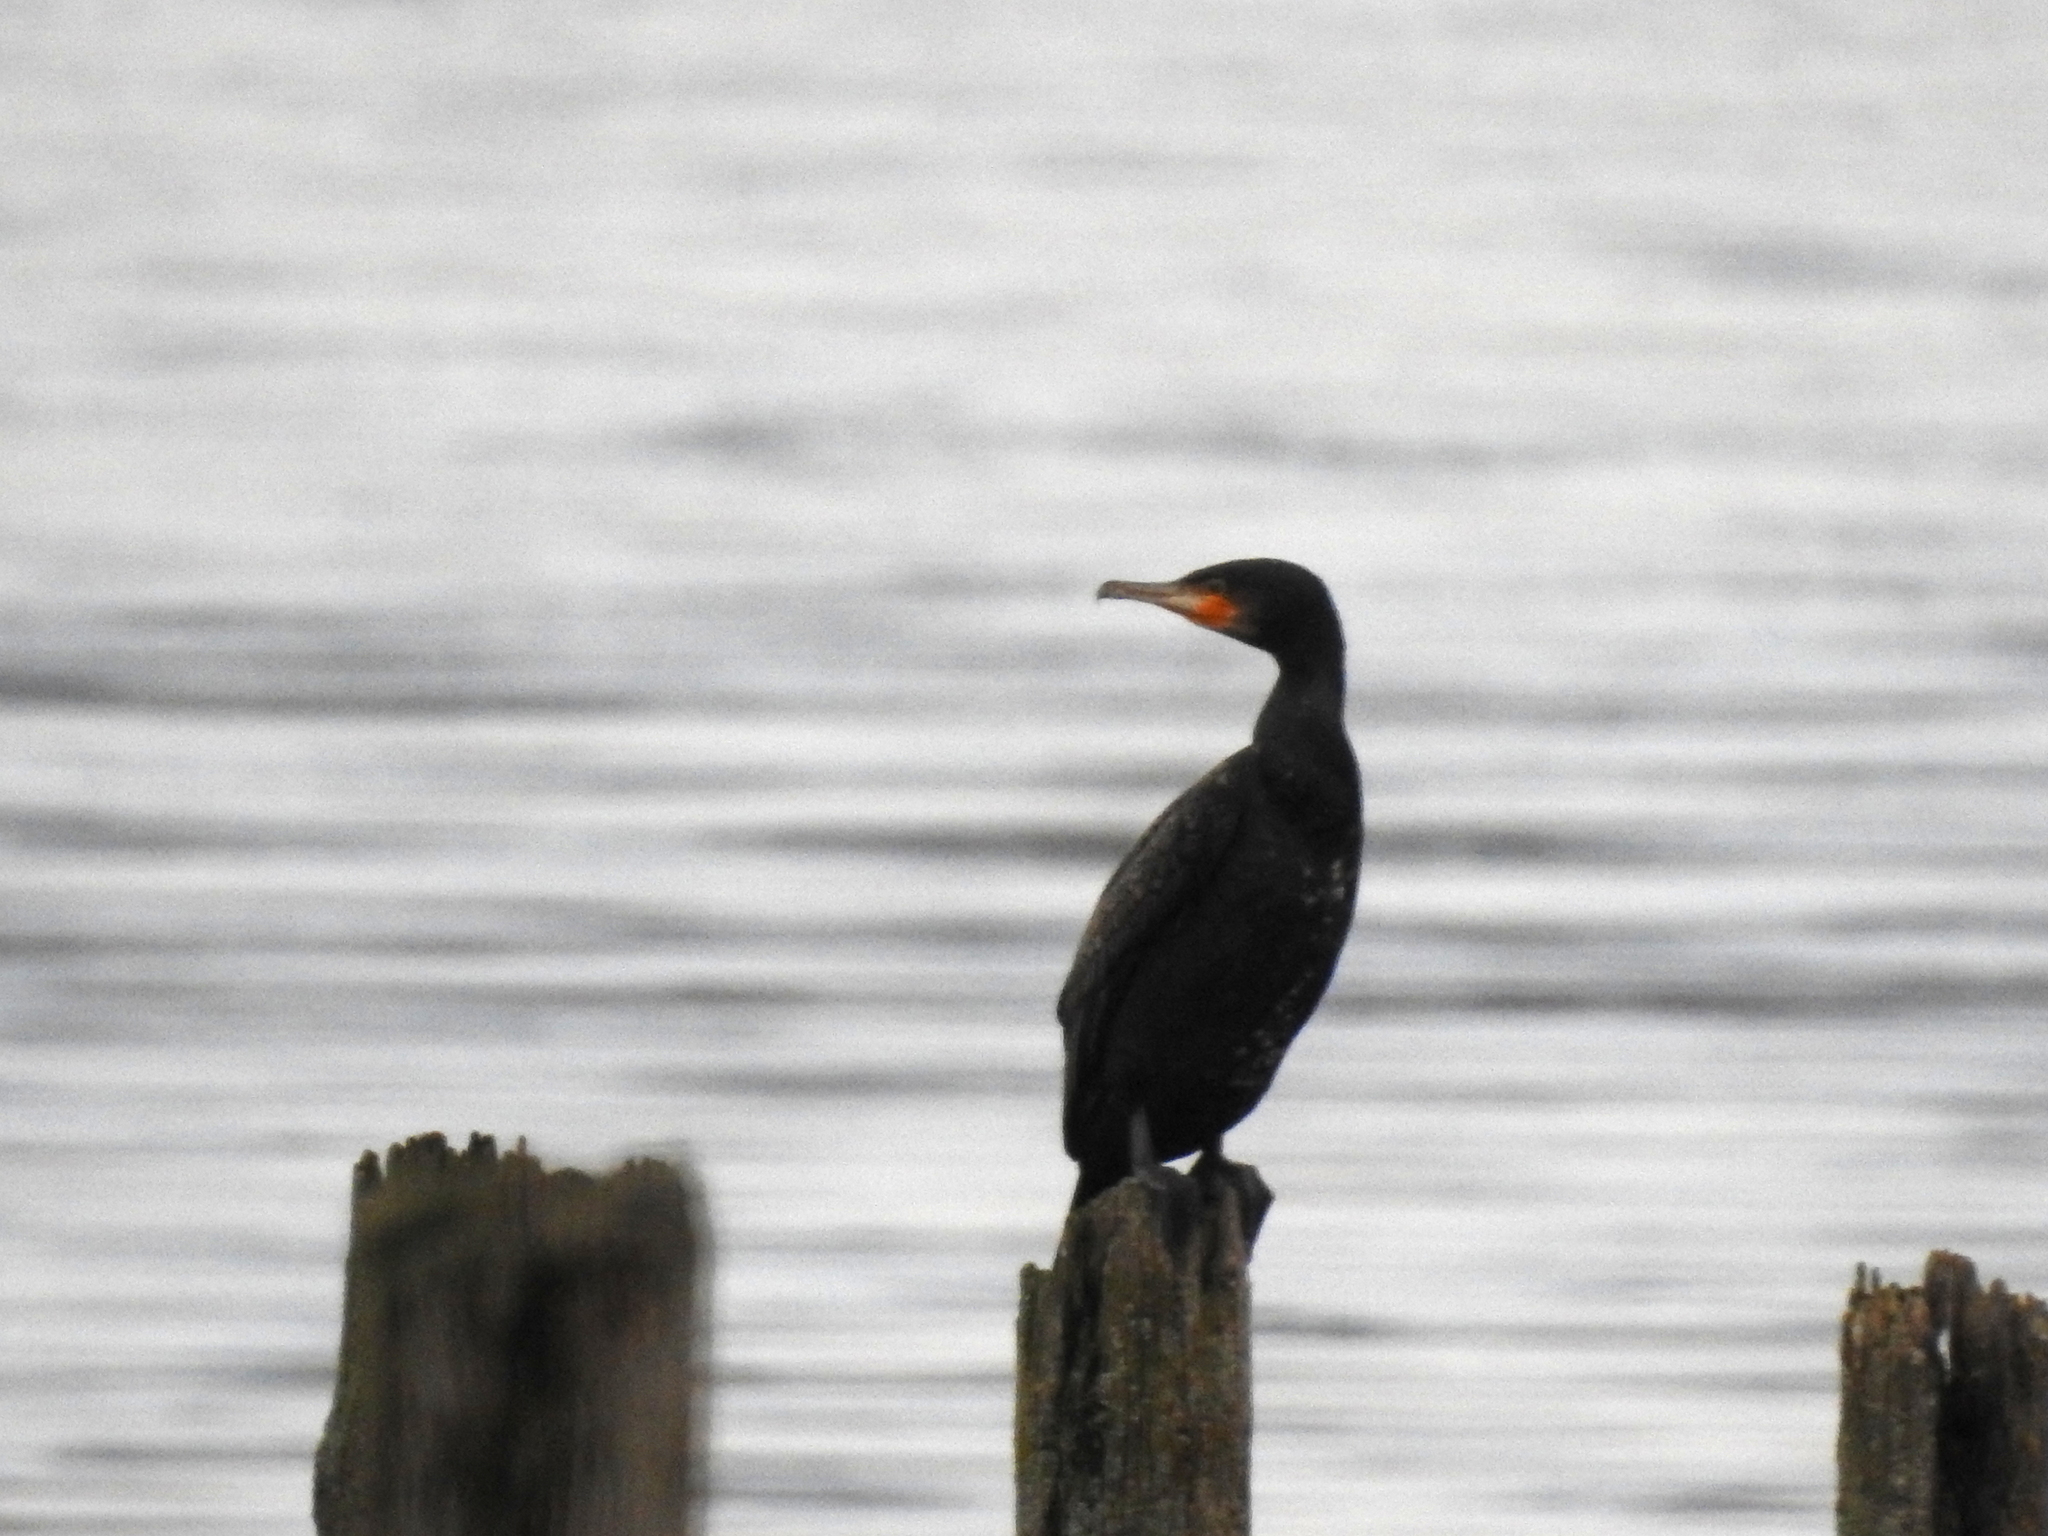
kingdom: Animalia
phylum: Chordata
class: Aves
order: Suliformes
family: Phalacrocoracidae
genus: Phalacrocorax
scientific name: Phalacrocorax carbo
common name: Great cormorant
